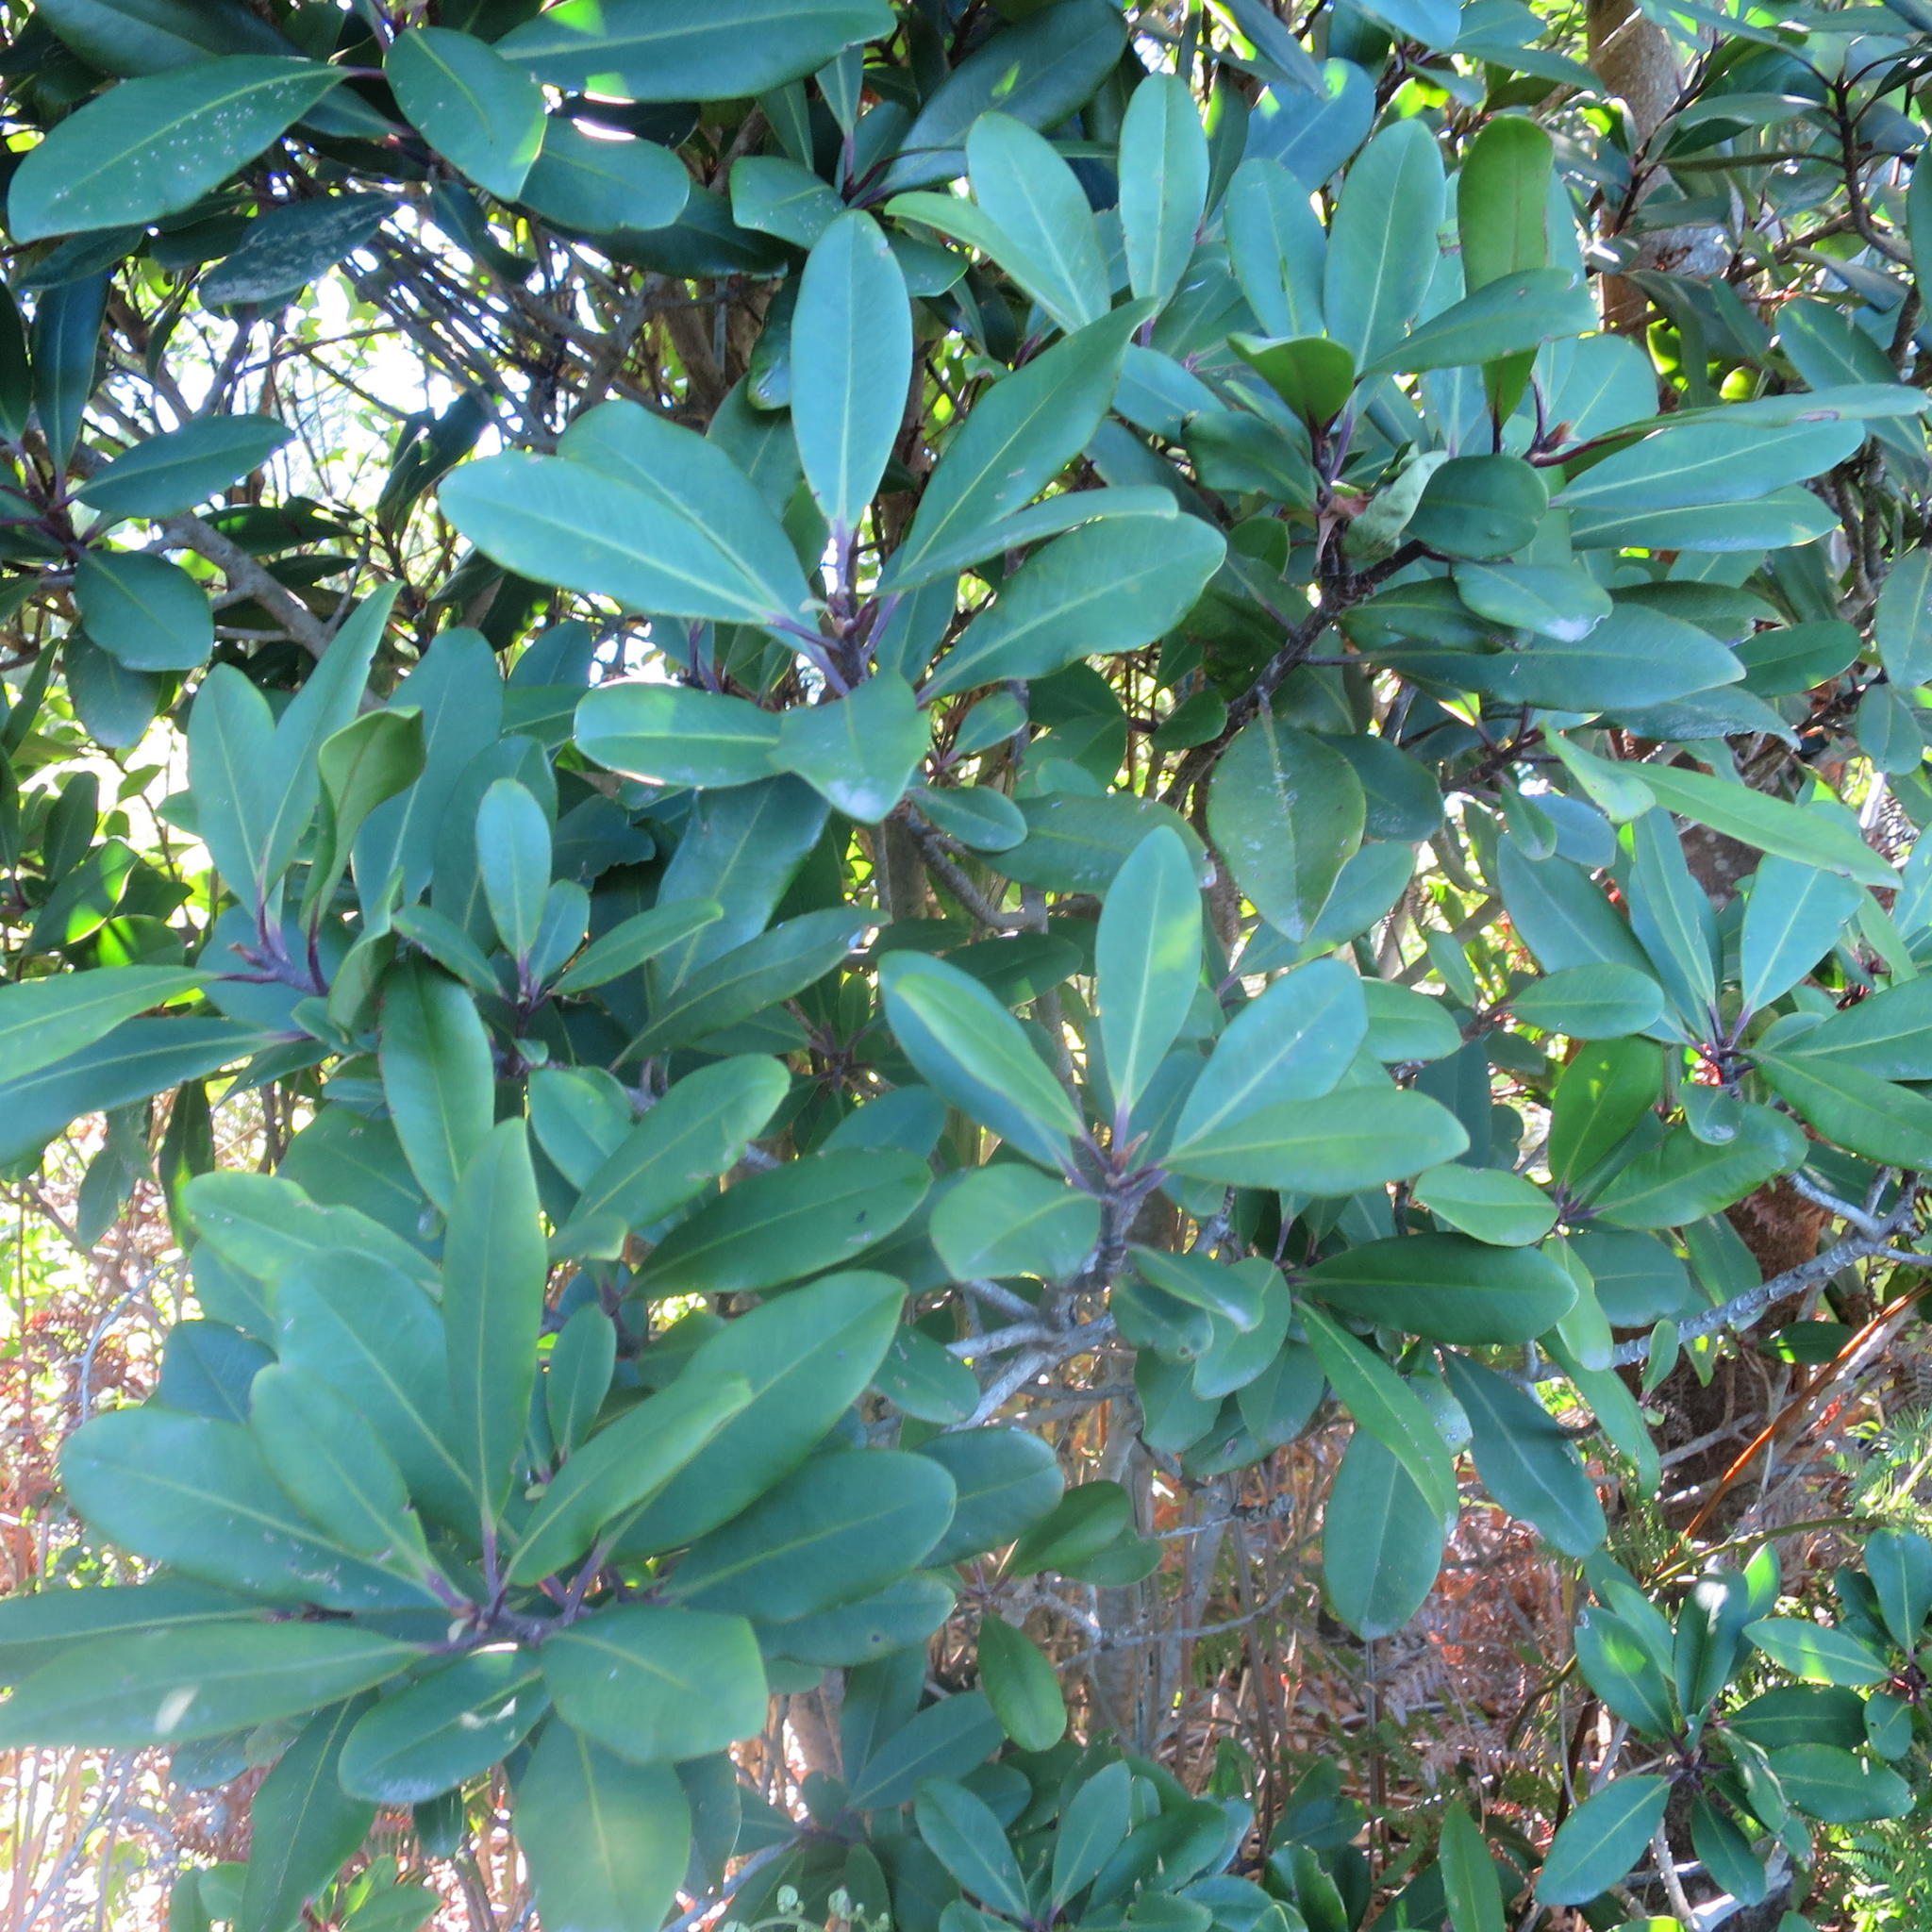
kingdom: Plantae
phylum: Tracheophyta
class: Magnoliopsida
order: Ericales
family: Primulaceae
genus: Myrsine
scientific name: Myrsine melanophloeos
